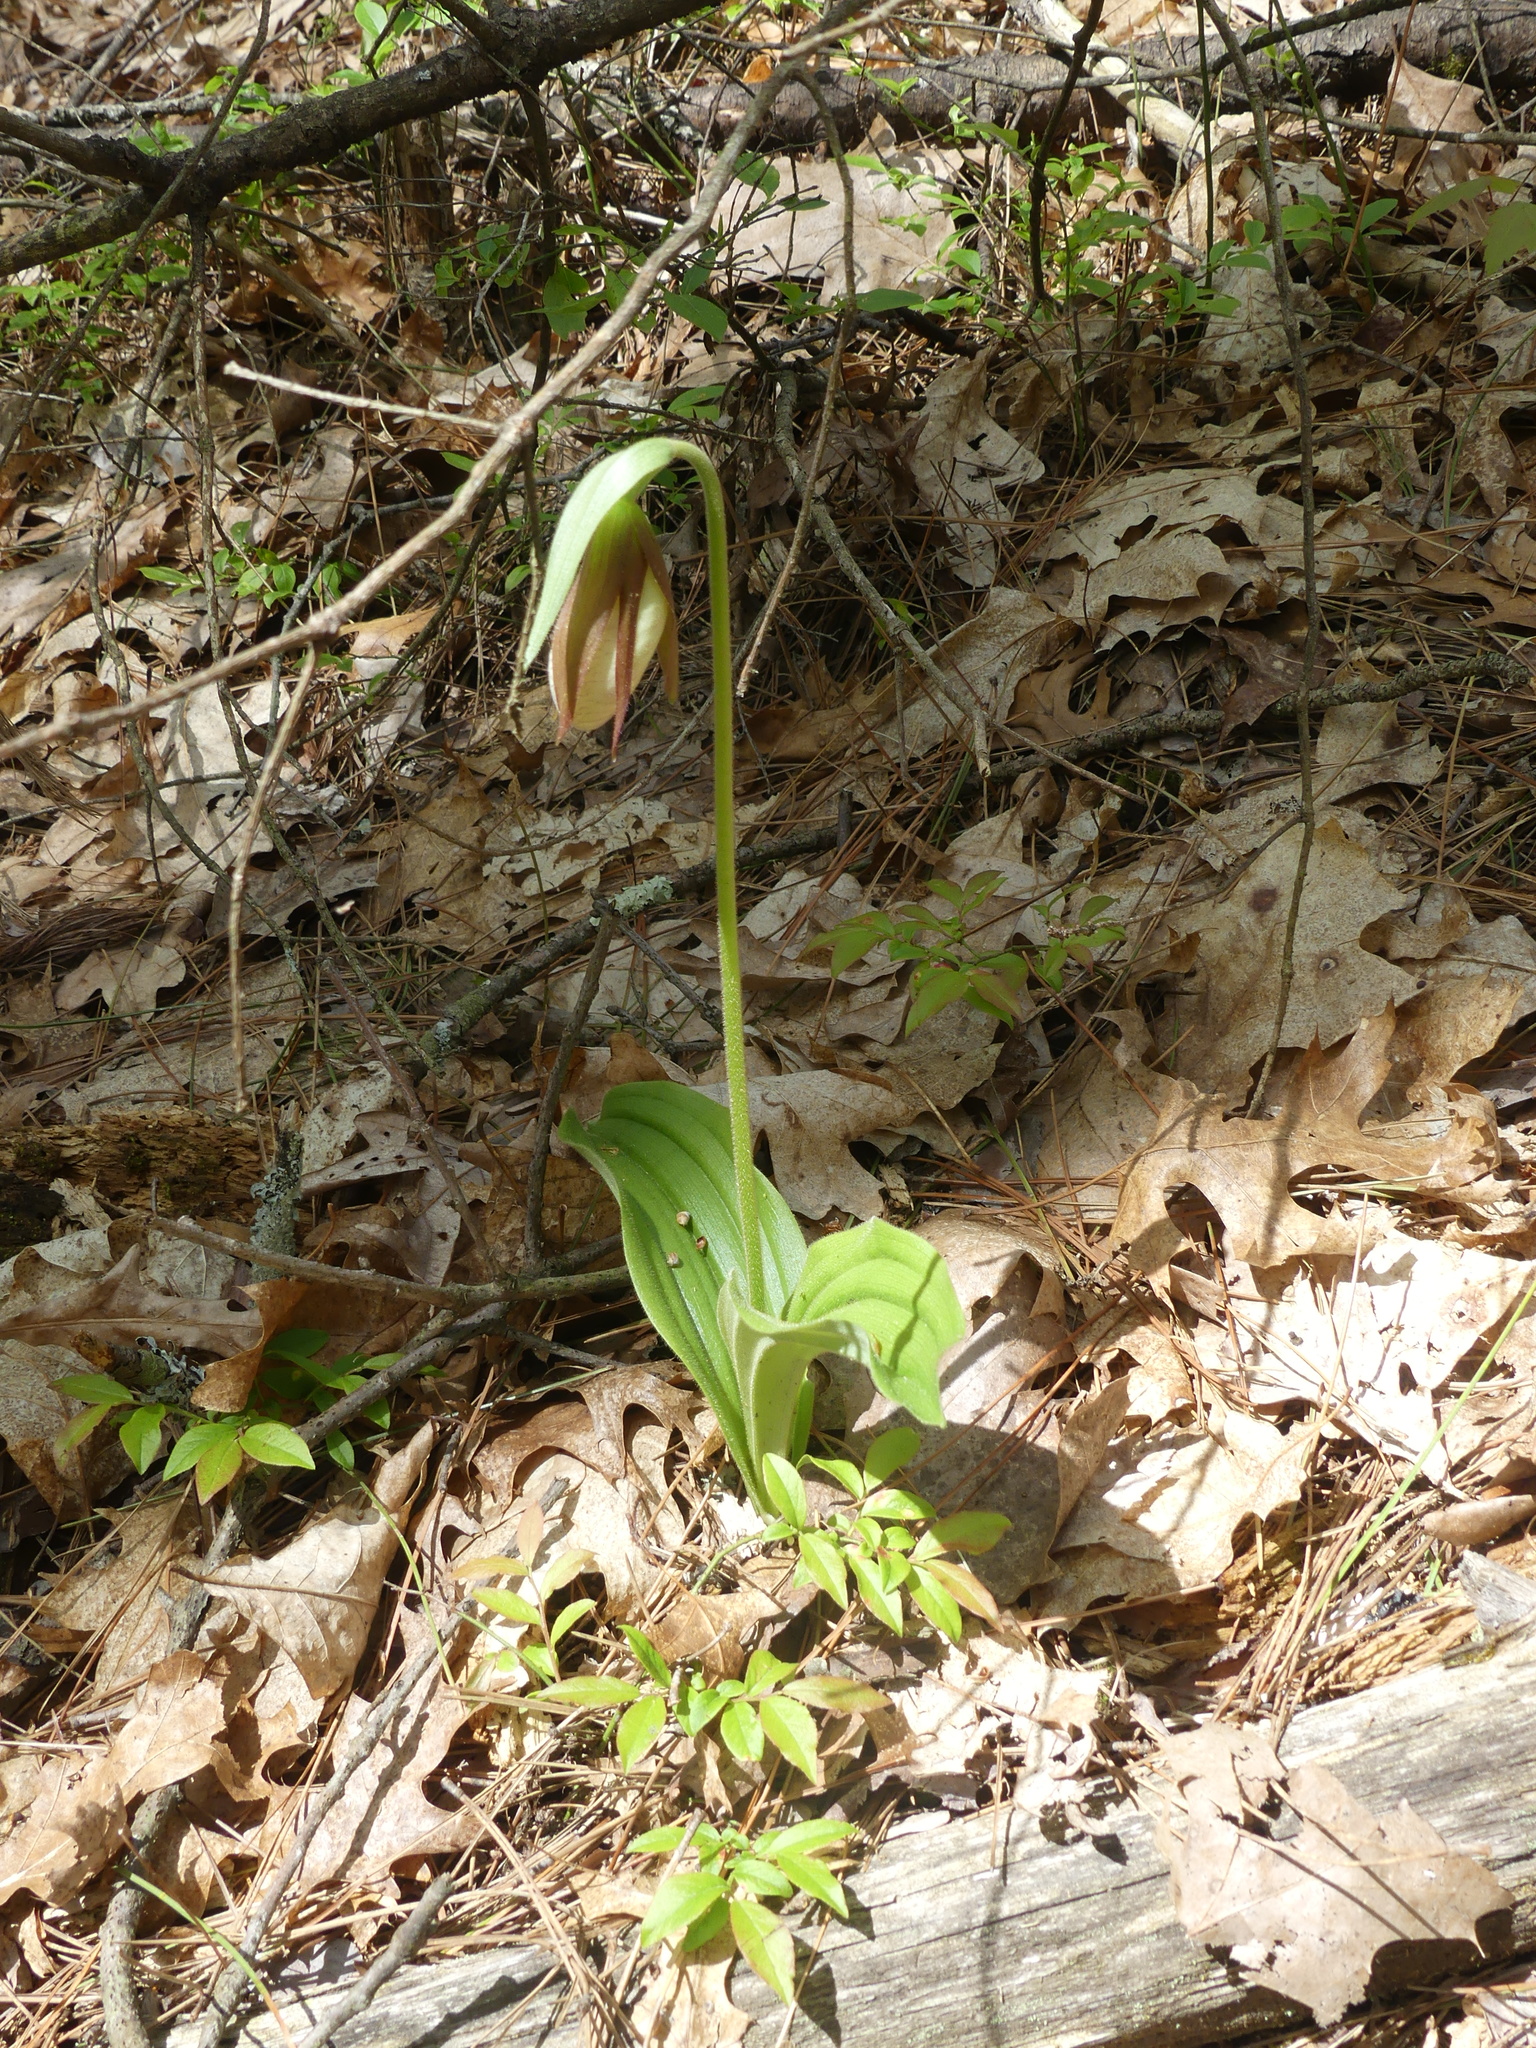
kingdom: Plantae
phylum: Tracheophyta
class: Liliopsida
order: Asparagales
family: Orchidaceae
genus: Cypripedium
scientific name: Cypripedium acaule
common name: Pink lady's-slipper
